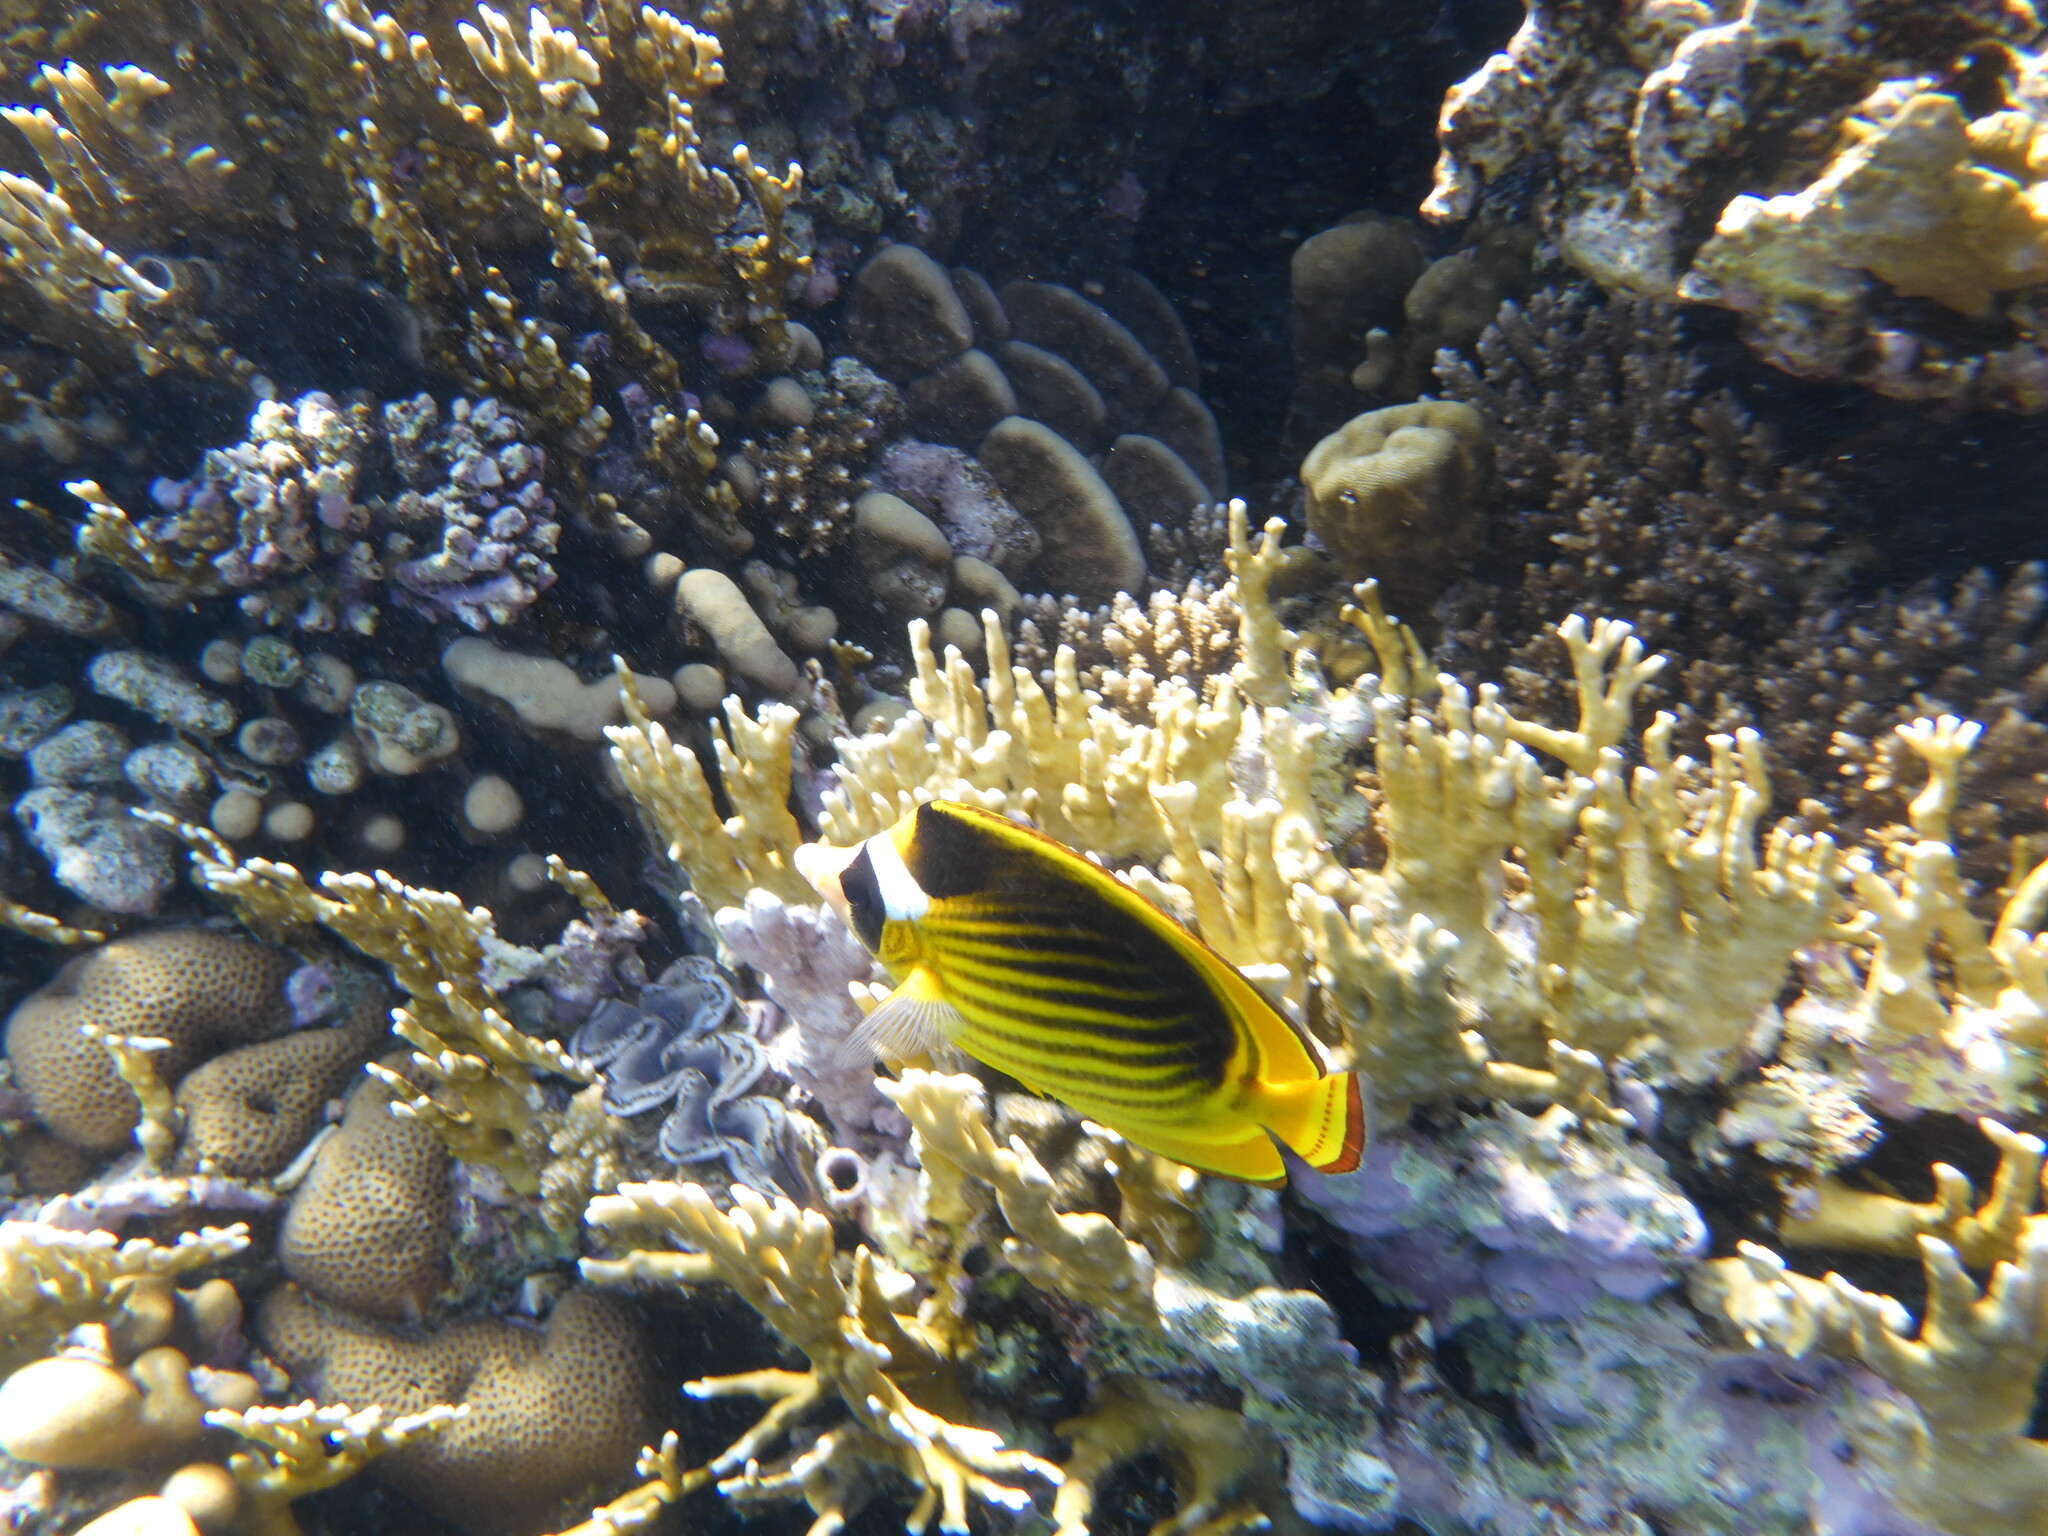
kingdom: Animalia
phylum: Chordata
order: Perciformes
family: Chaetodontidae
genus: Chaetodon
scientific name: Chaetodon fasciatus
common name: Diagonal butterflyfish
